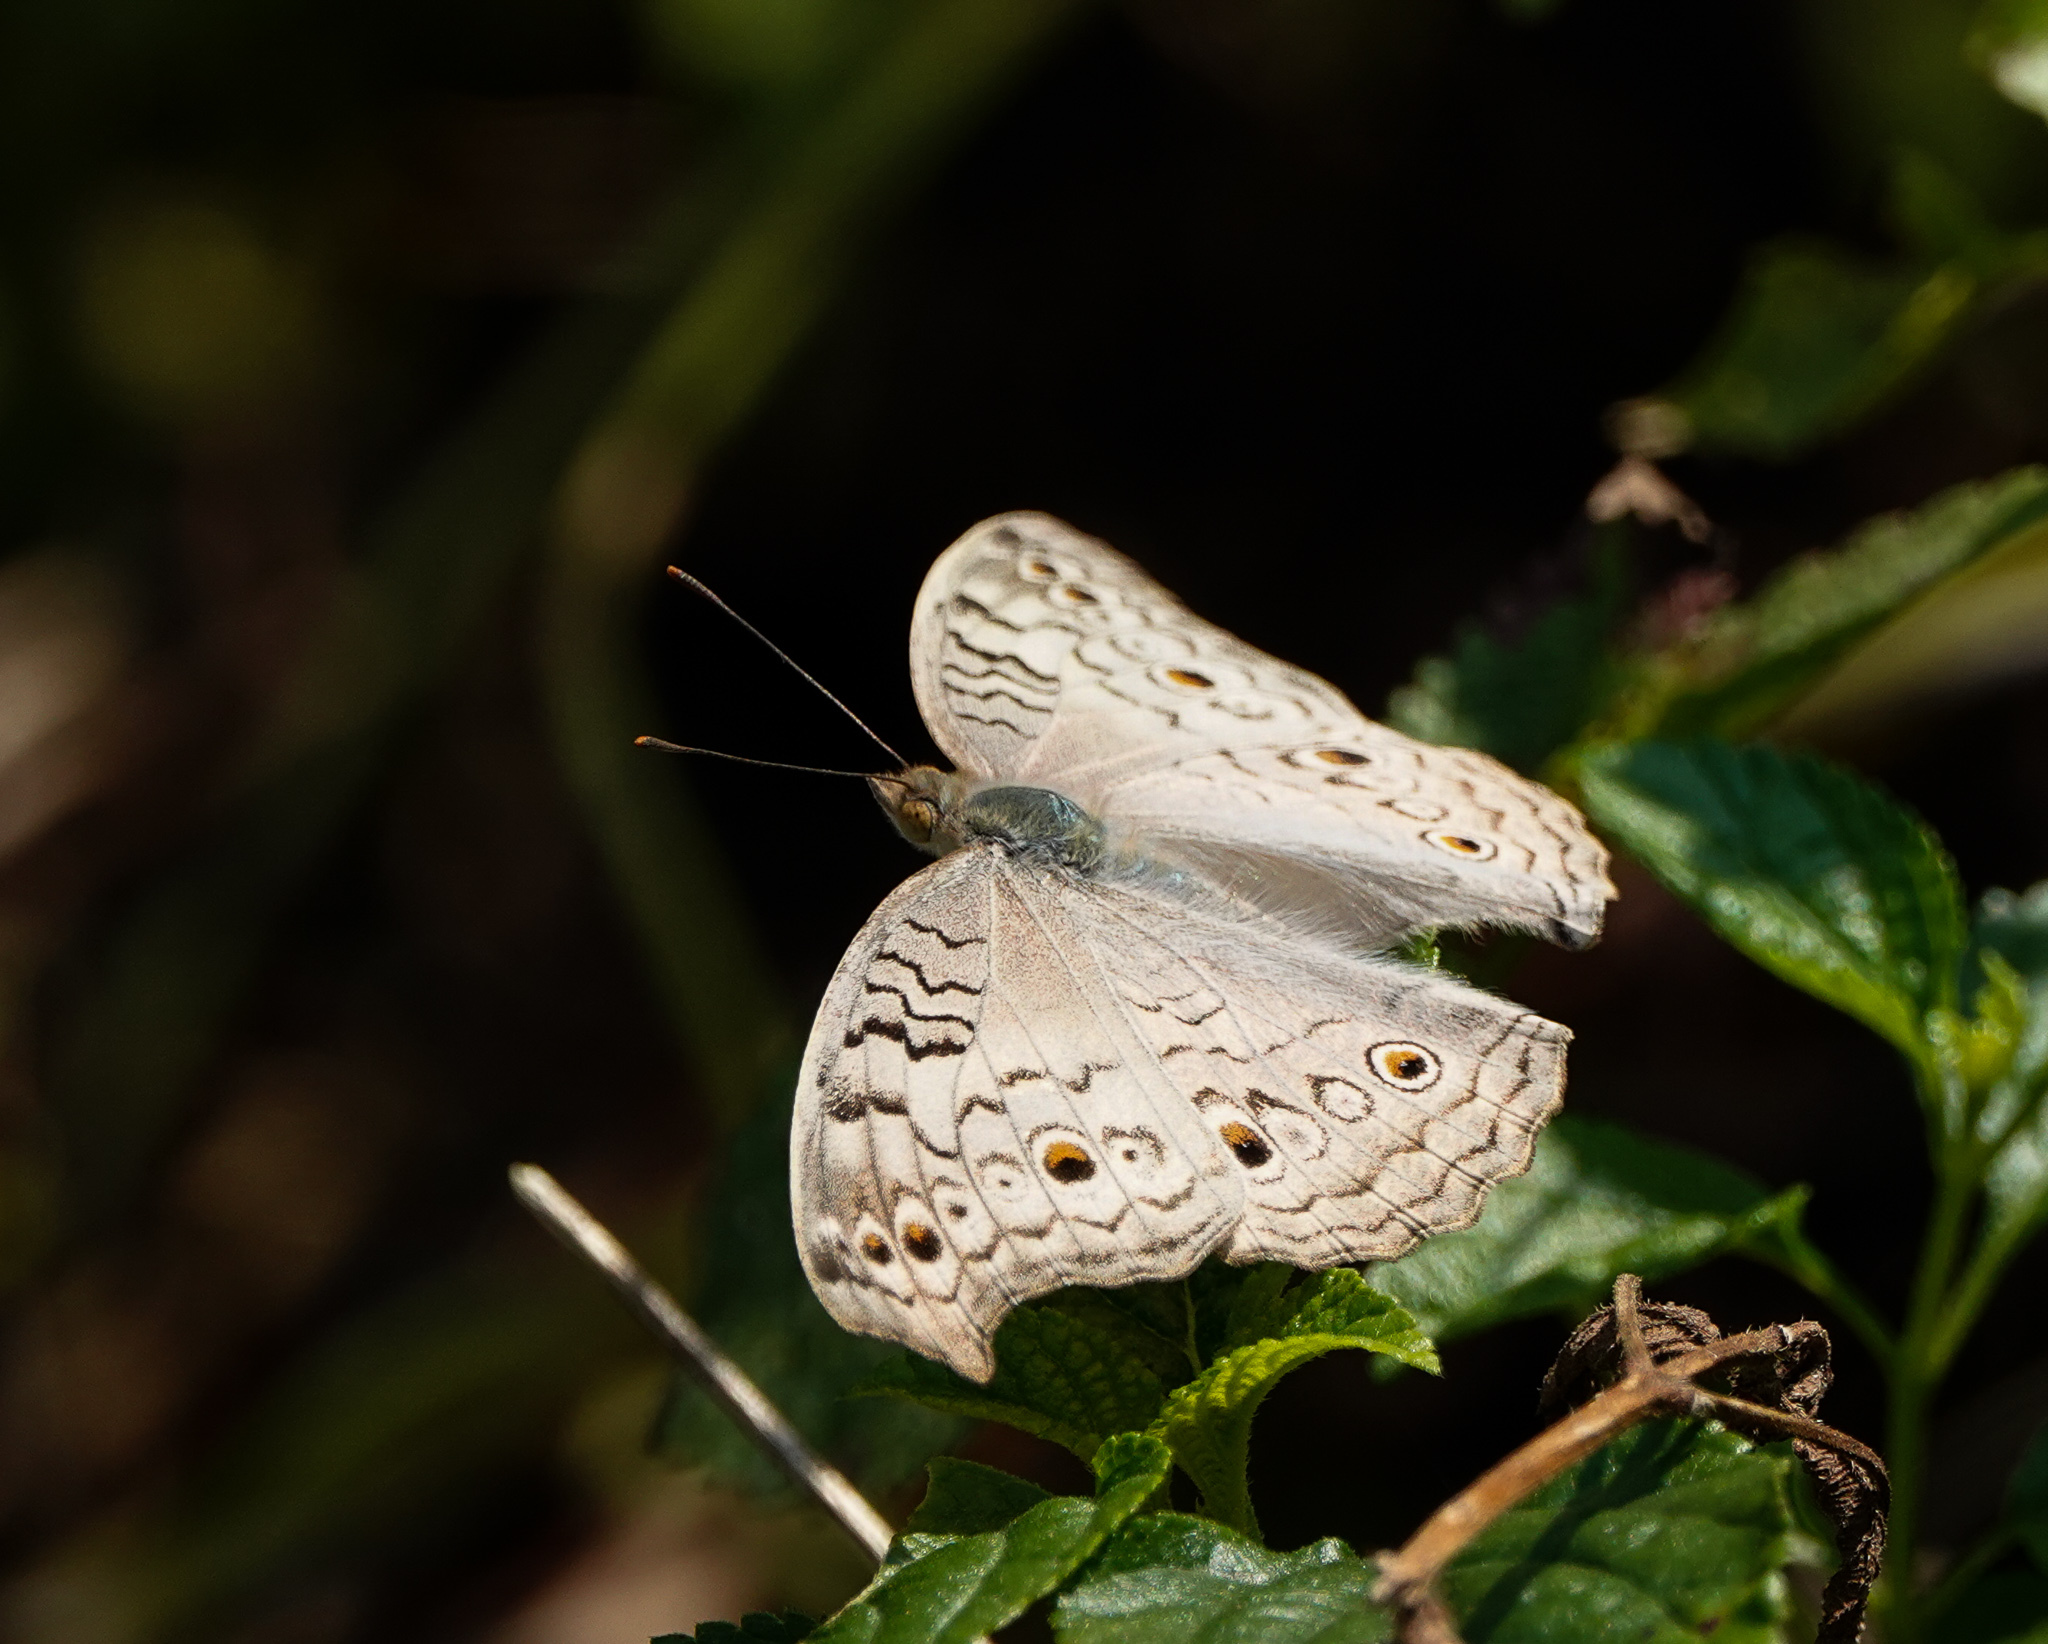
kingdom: Animalia
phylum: Arthropoda
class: Insecta
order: Lepidoptera
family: Nymphalidae
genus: Junonia
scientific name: Junonia atlites
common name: Grey pansy
